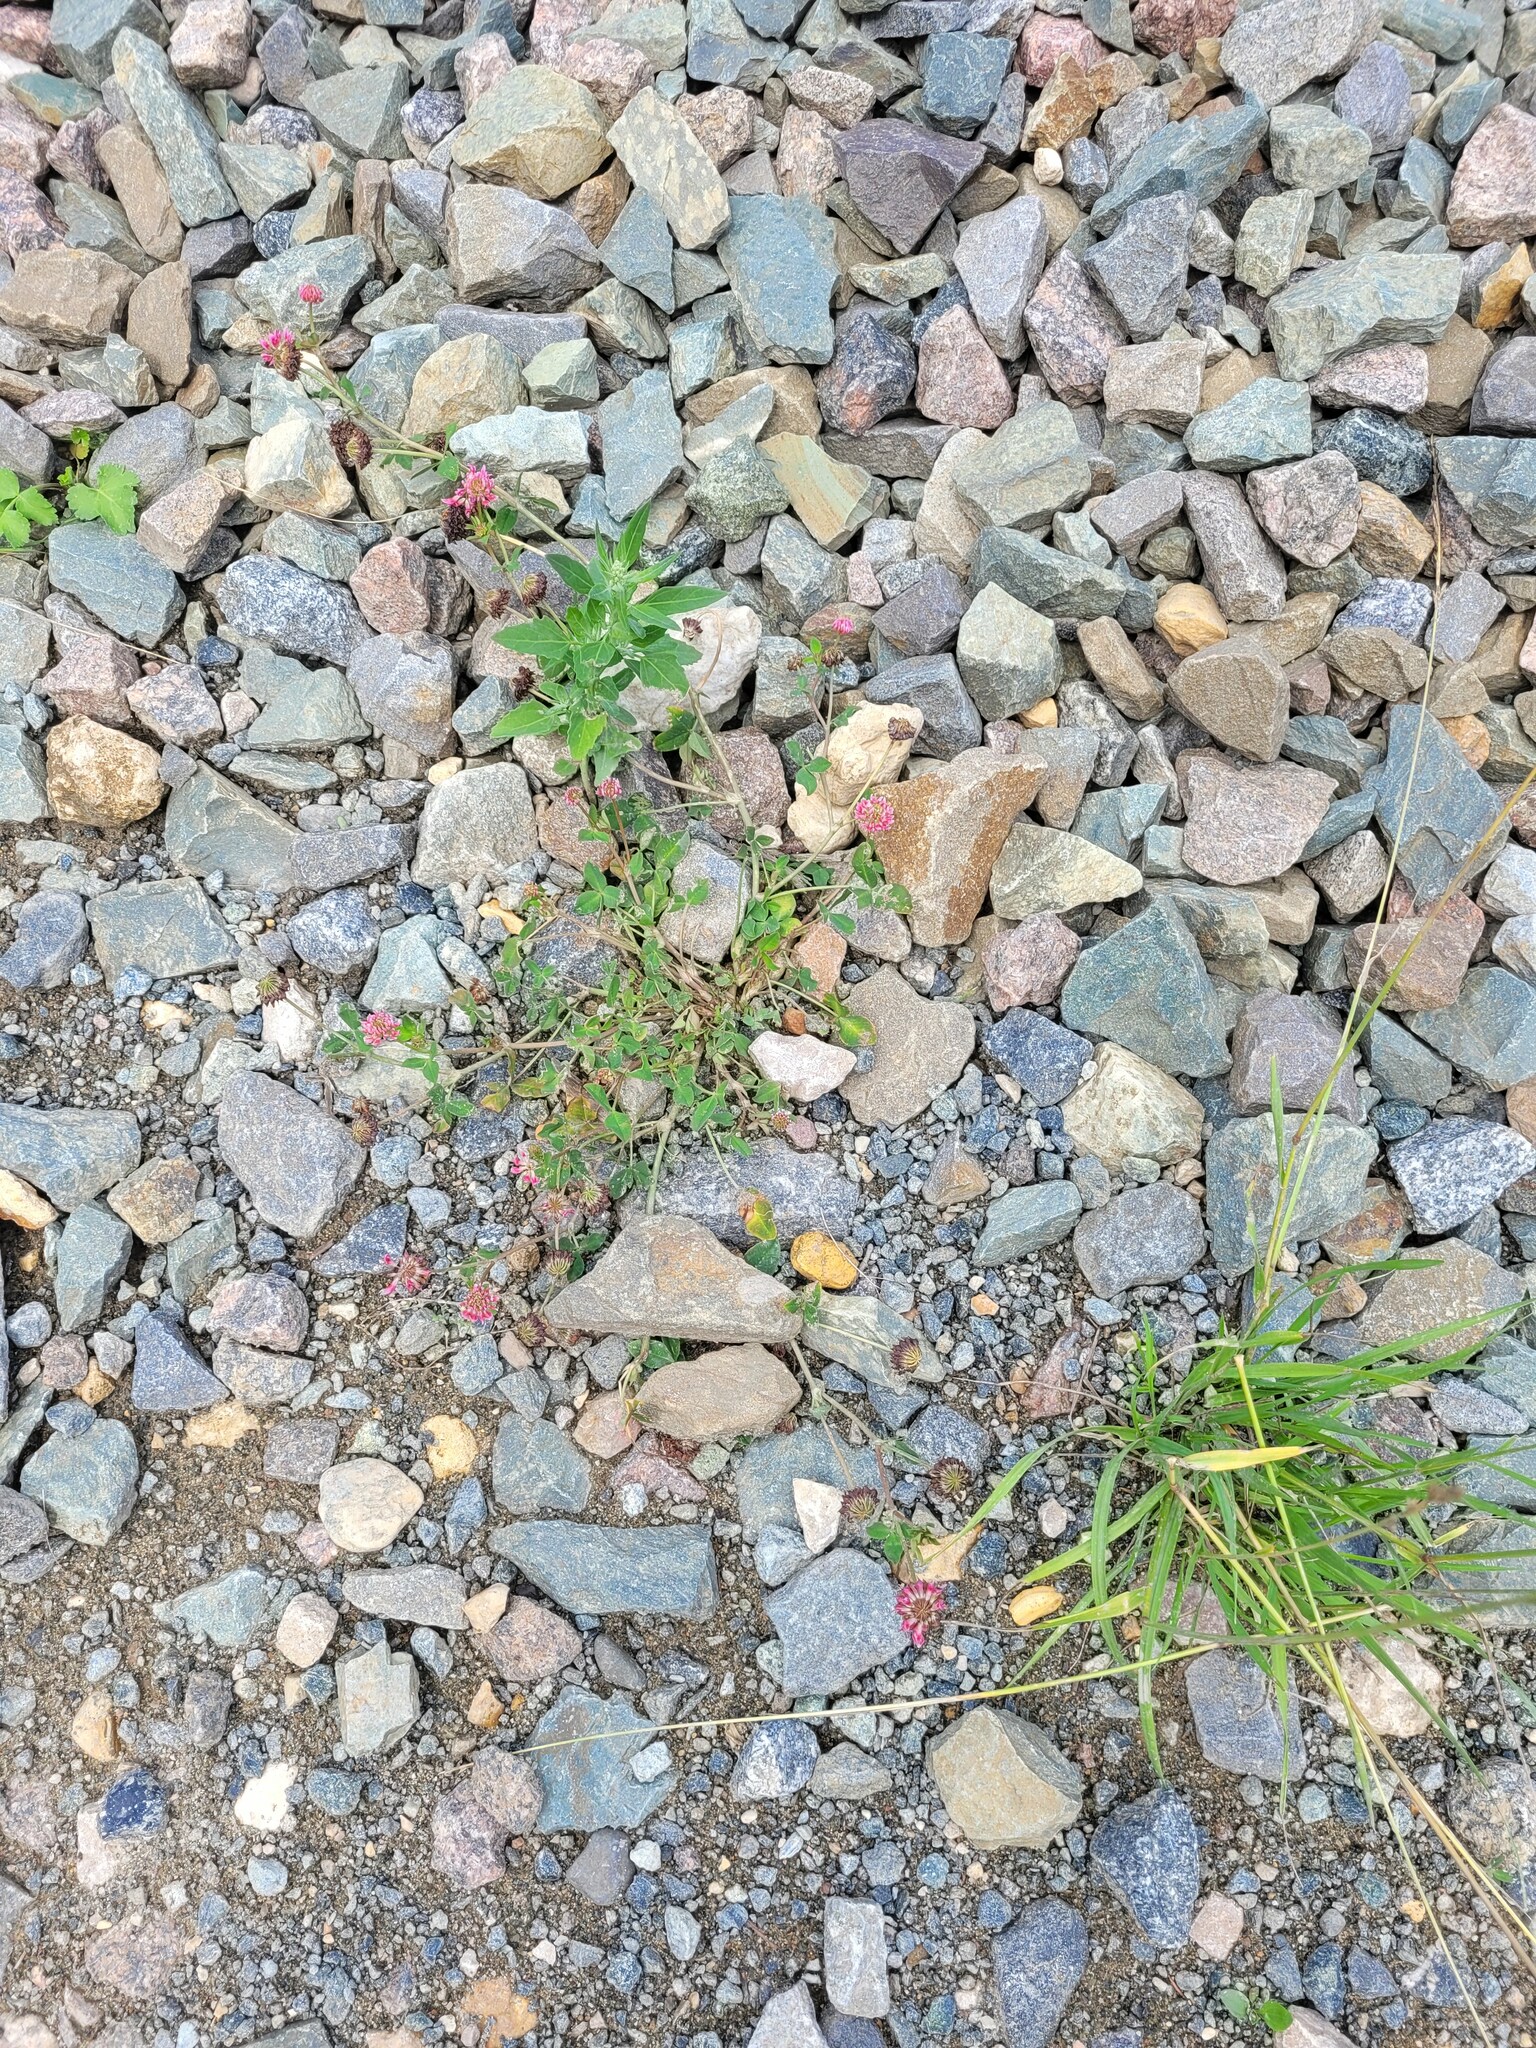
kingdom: Plantae
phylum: Tracheophyta
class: Magnoliopsida
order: Fabales
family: Fabaceae
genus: Trifolium
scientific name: Trifolium hybridum
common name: Alsike clover
